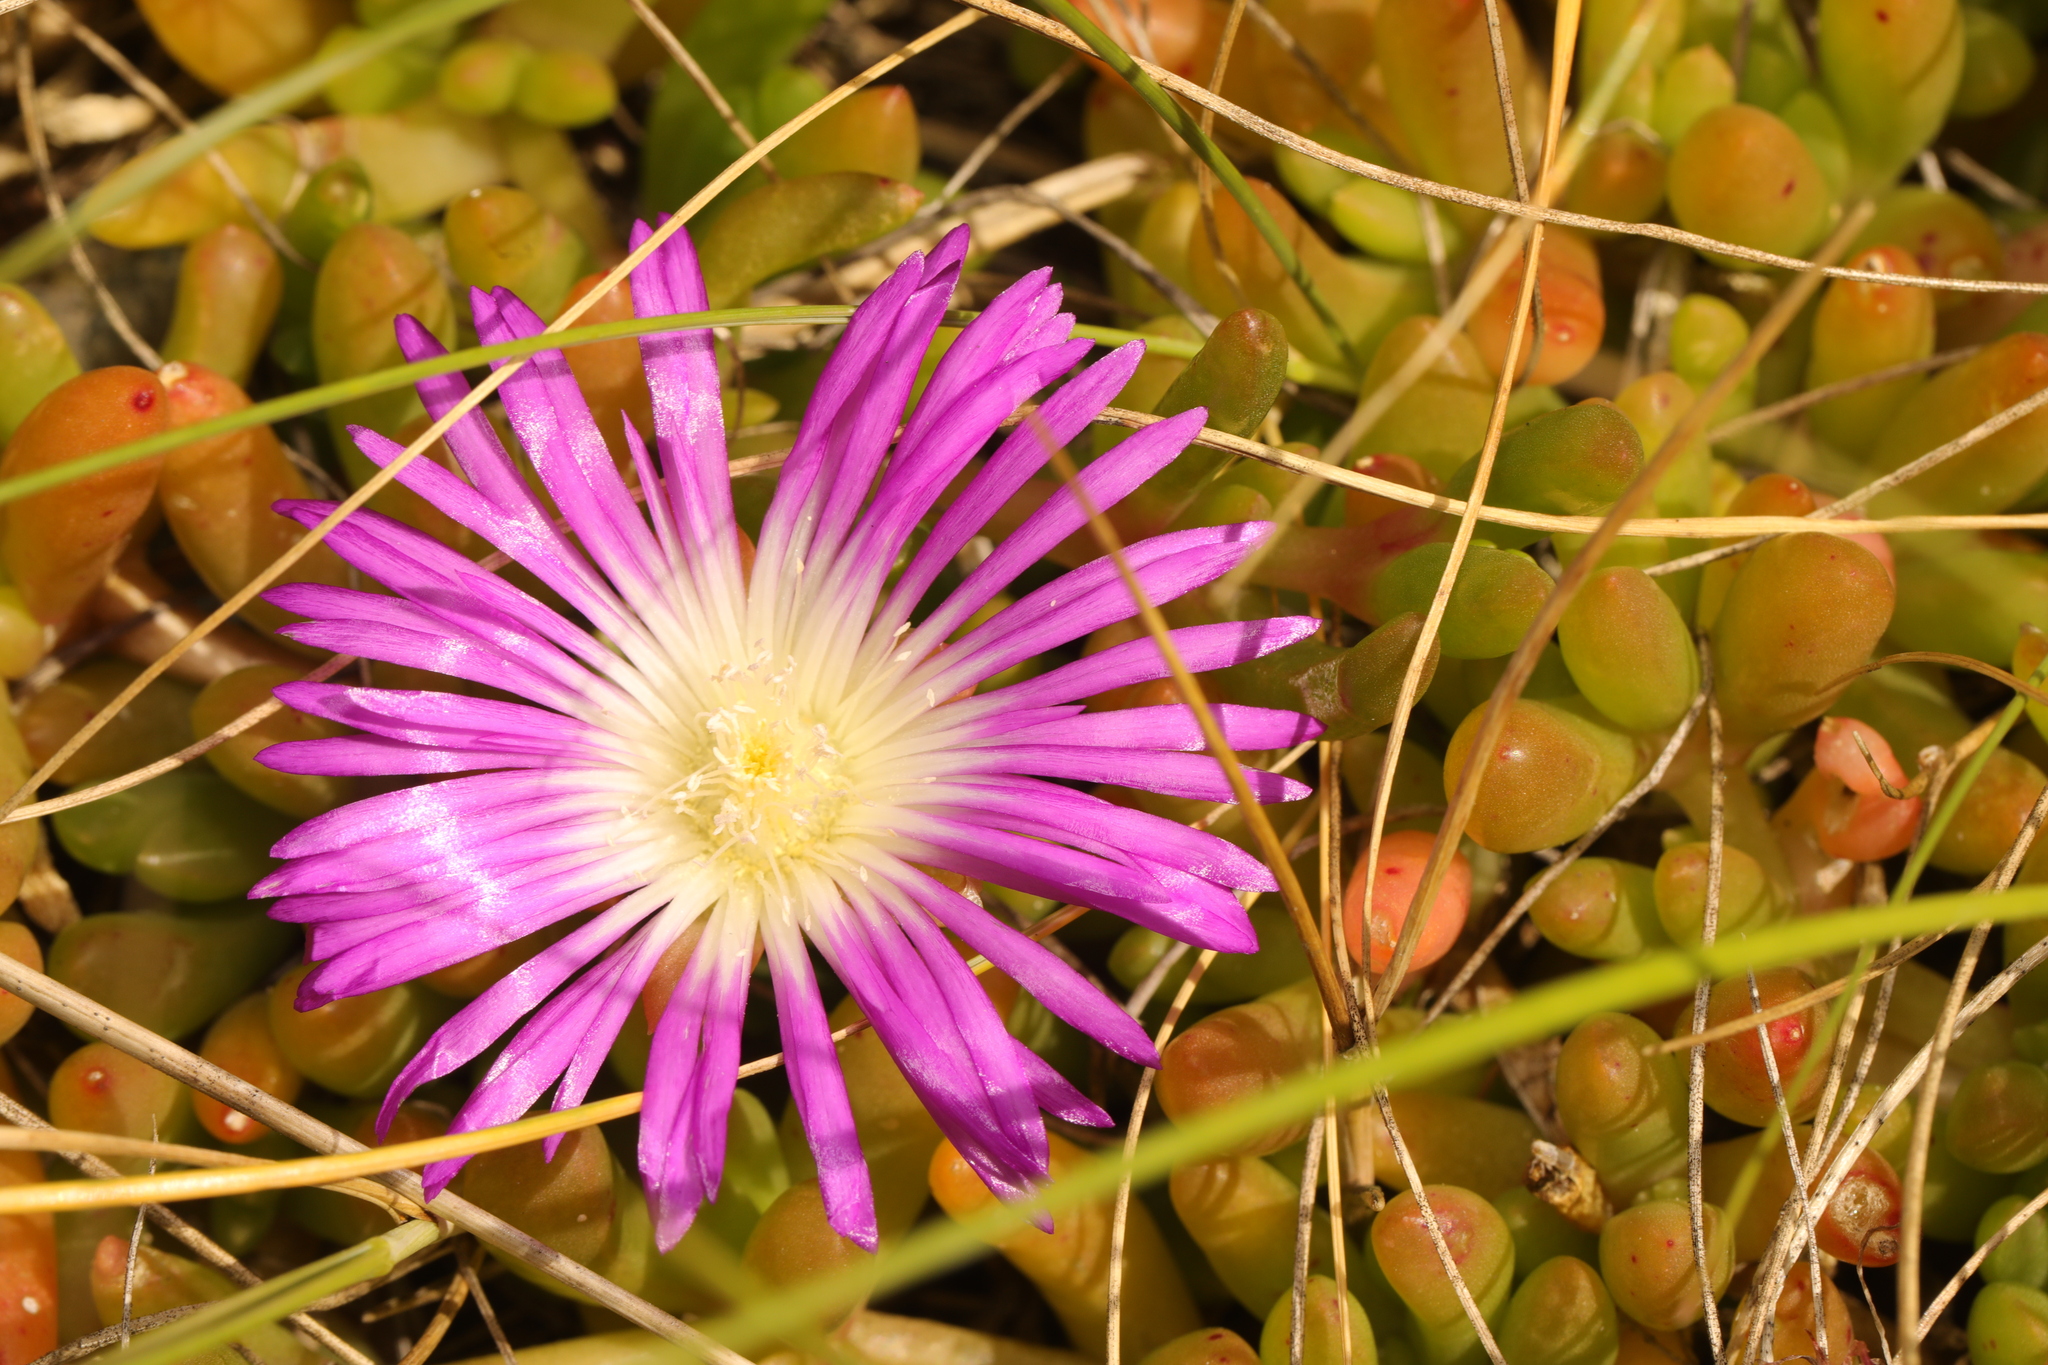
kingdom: Plantae
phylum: Tracheophyta
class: Magnoliopsida
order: Caryophyllales
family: Aizoaceae
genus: Disphyma
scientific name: Disphyma crassifolium
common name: Purple dewplant
